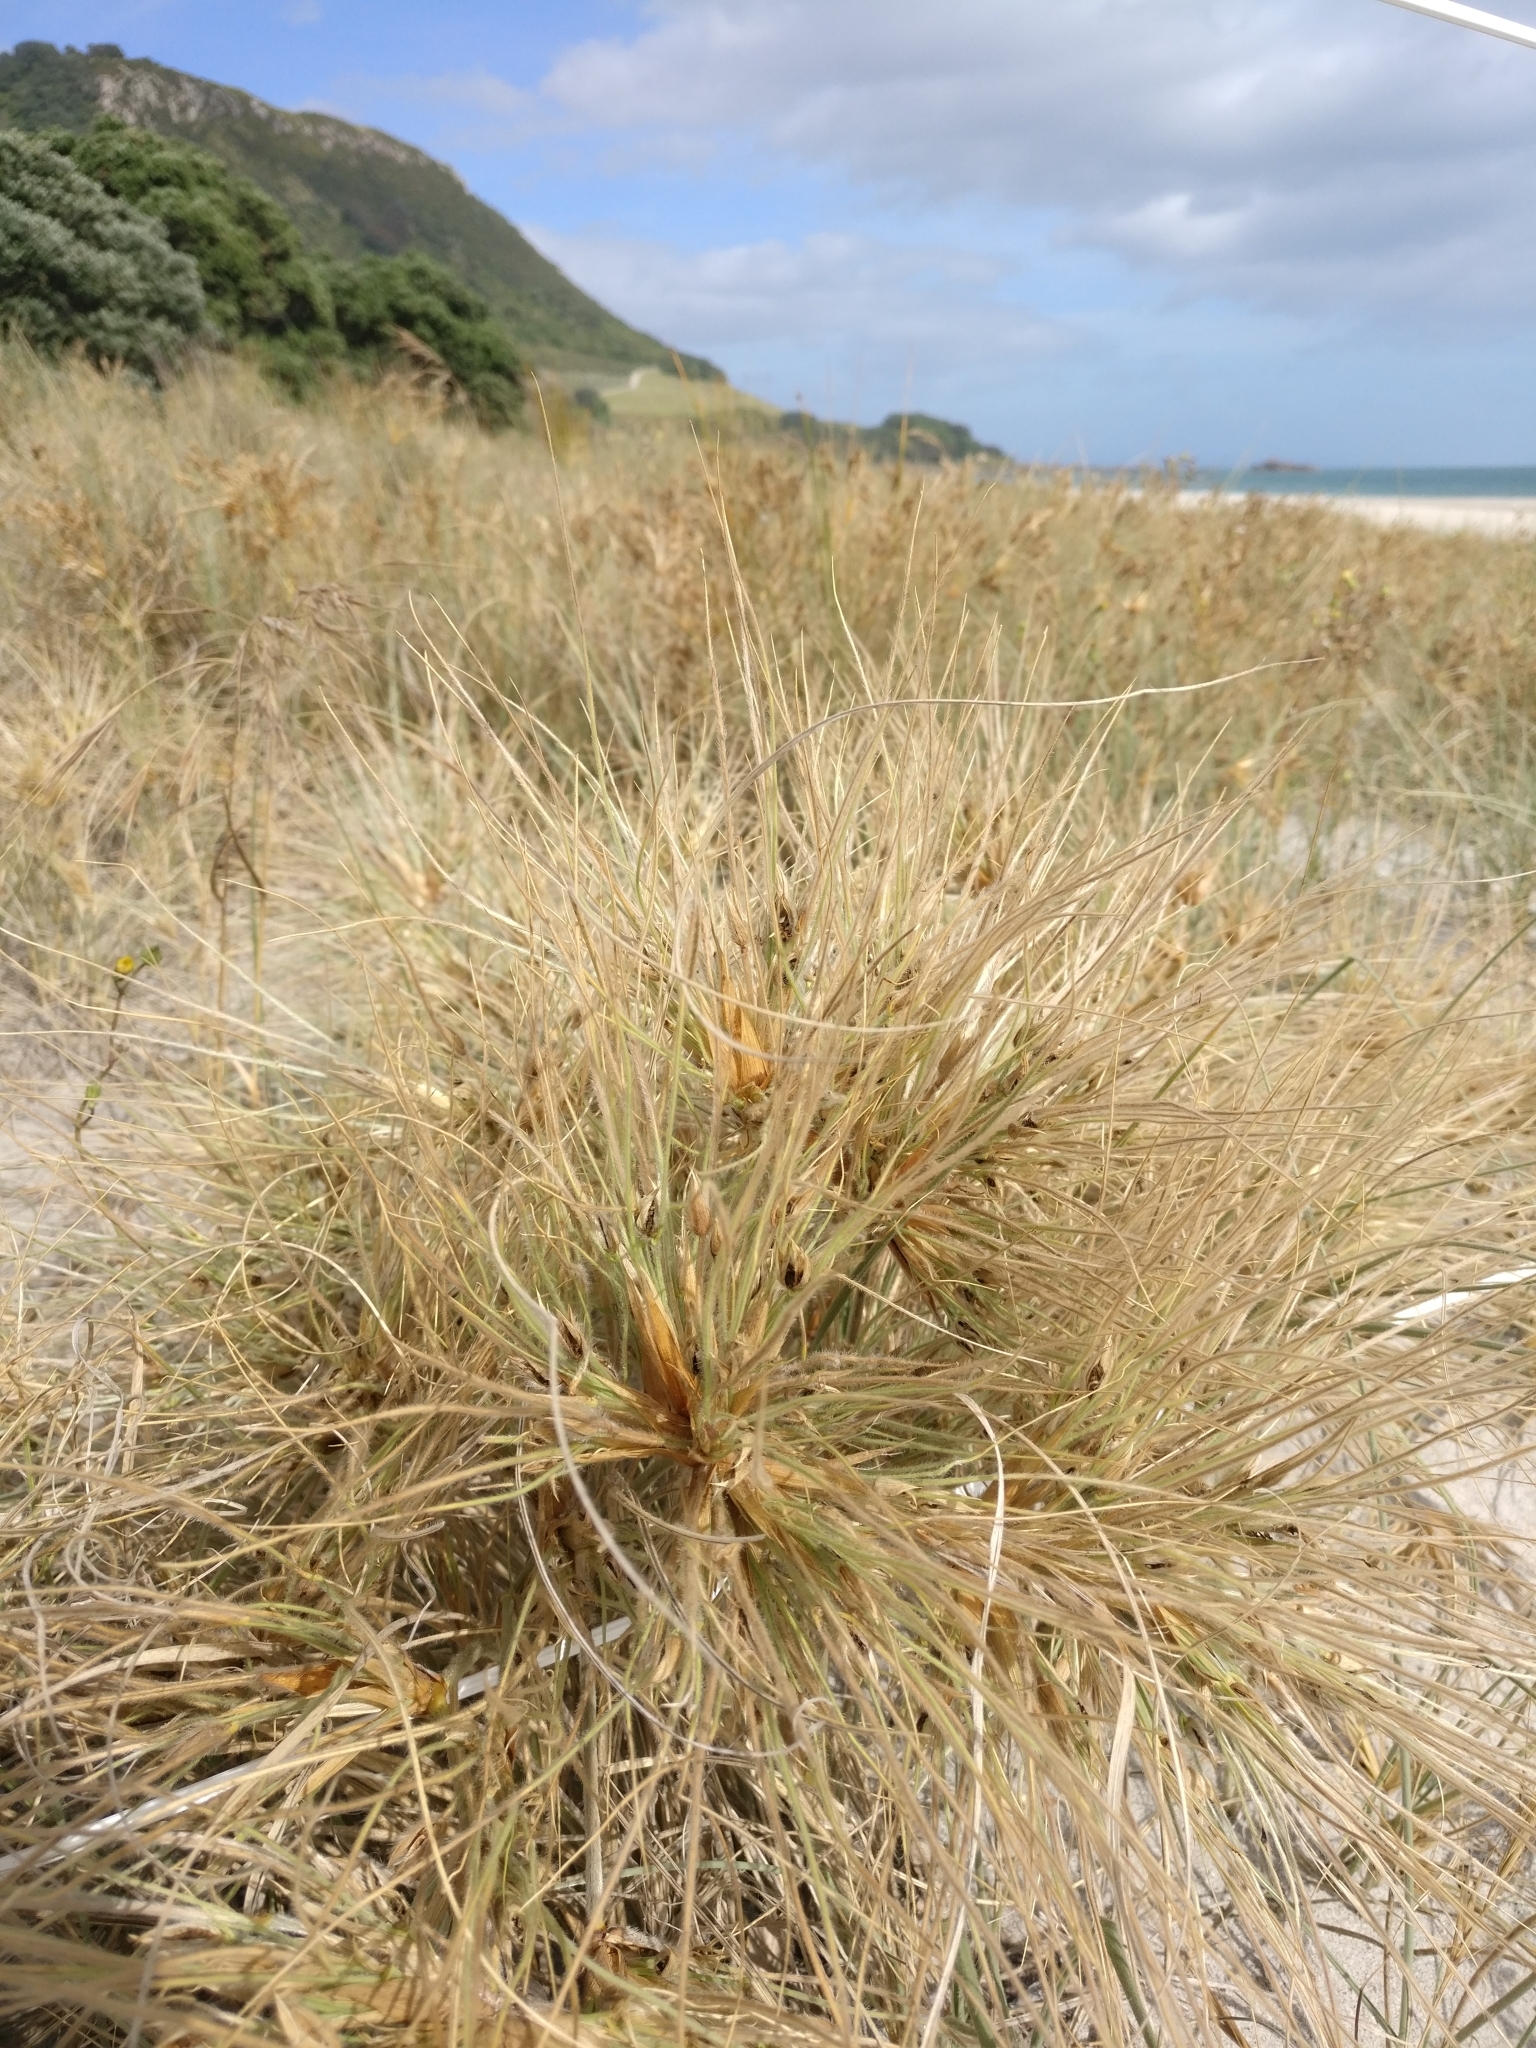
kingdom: Plantae
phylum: Tracheophyta
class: Liliopsida
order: Poales
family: Poaceae
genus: Spinifex
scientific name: Spinifex sericeus
